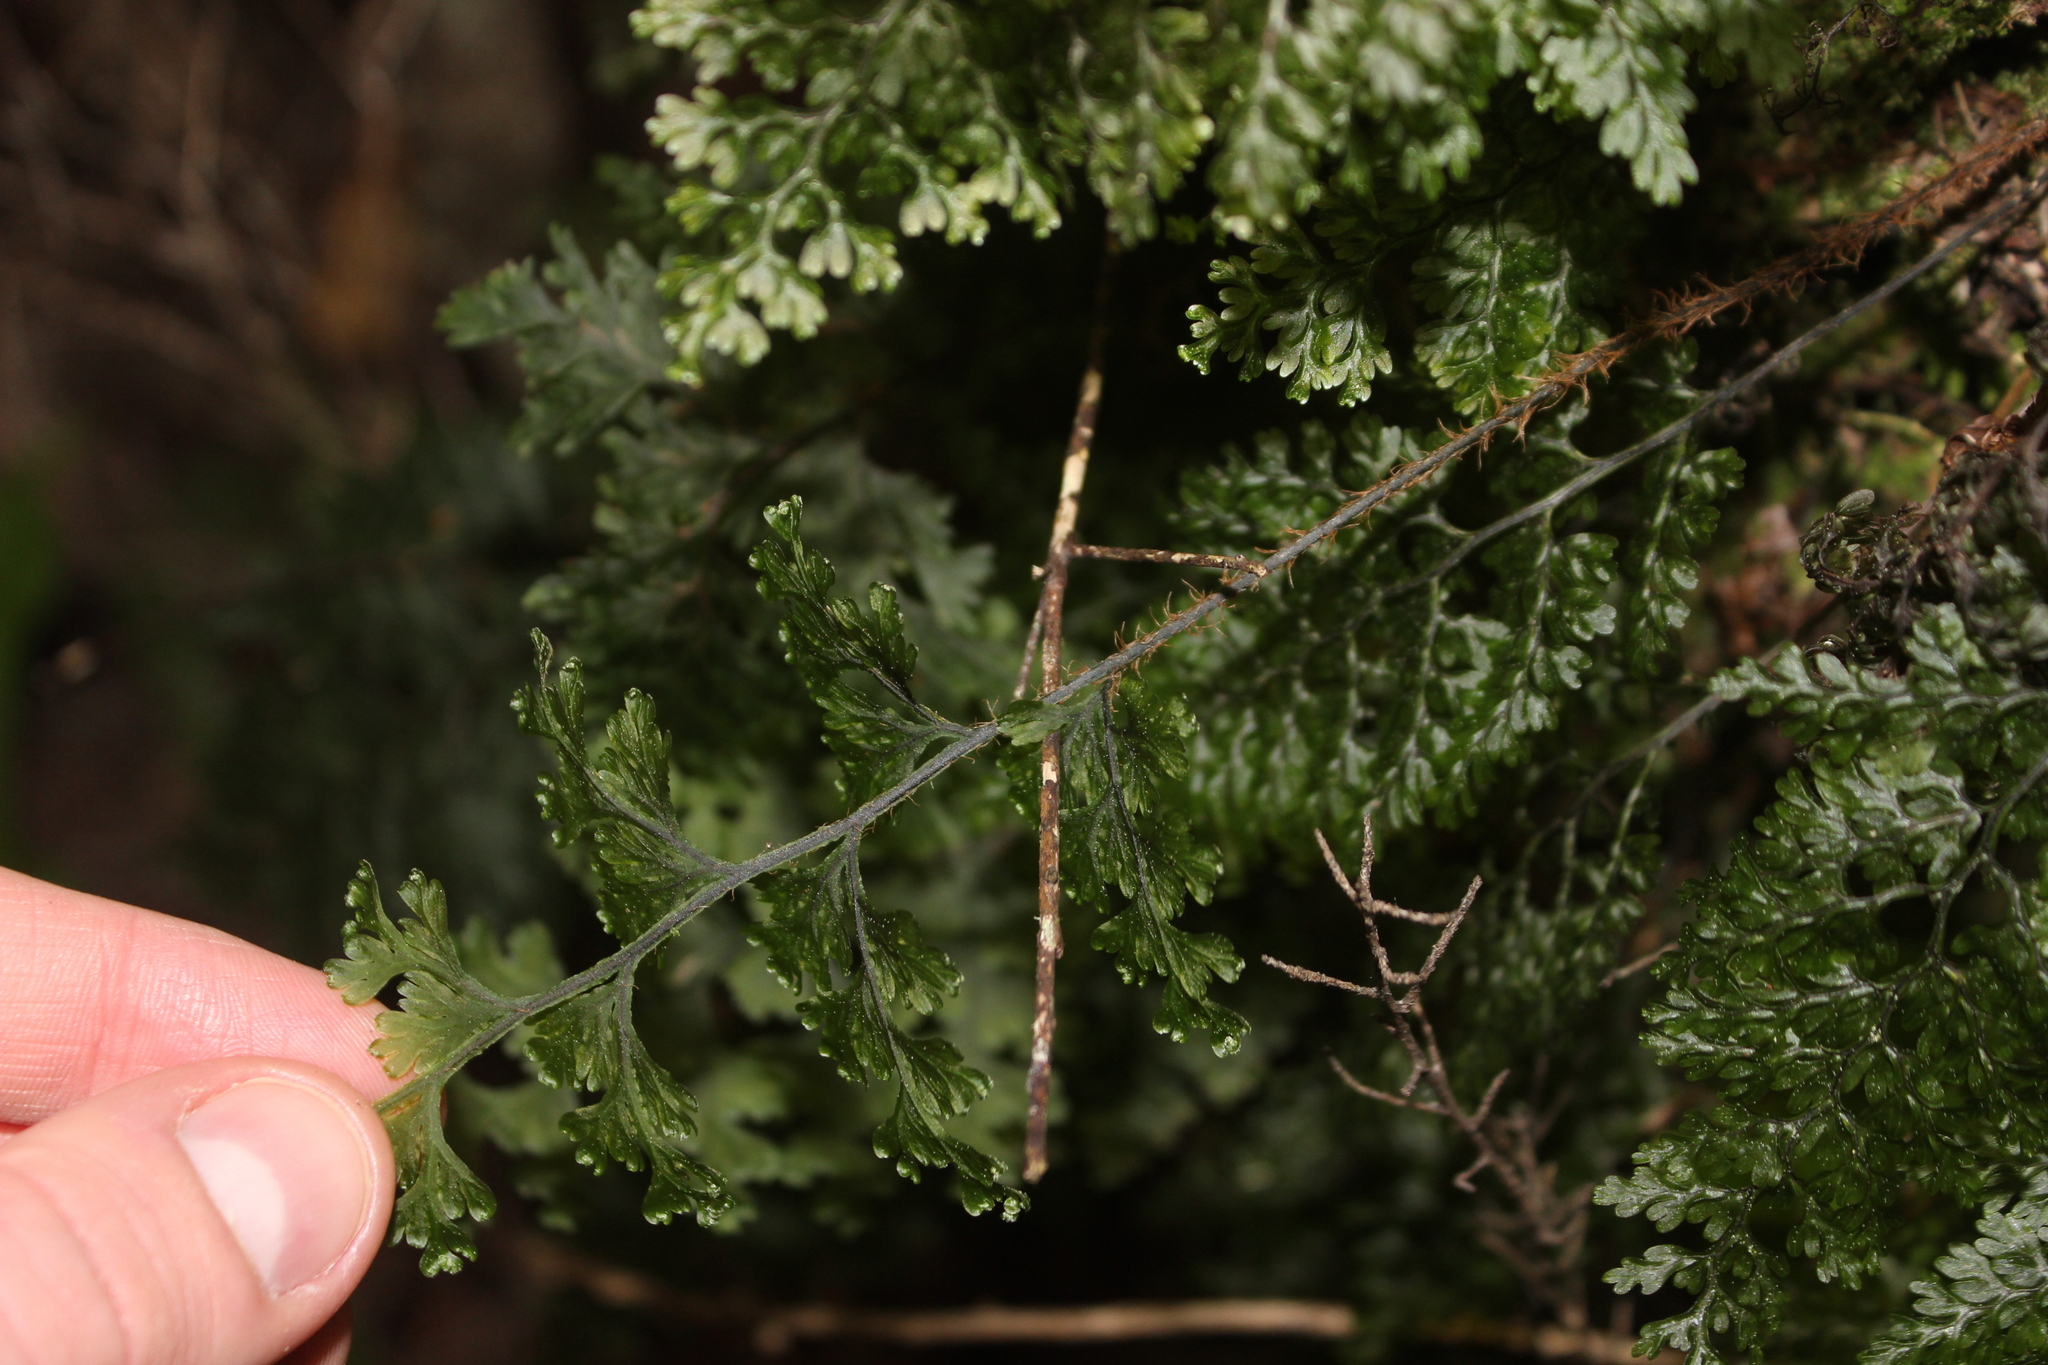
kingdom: Plantae
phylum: Tracheophyta
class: Polypodiopsida
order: Hymenophyllales
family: Hymenophyllaceae
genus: Hymenophyllum
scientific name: Hymenophyllum scabrum
